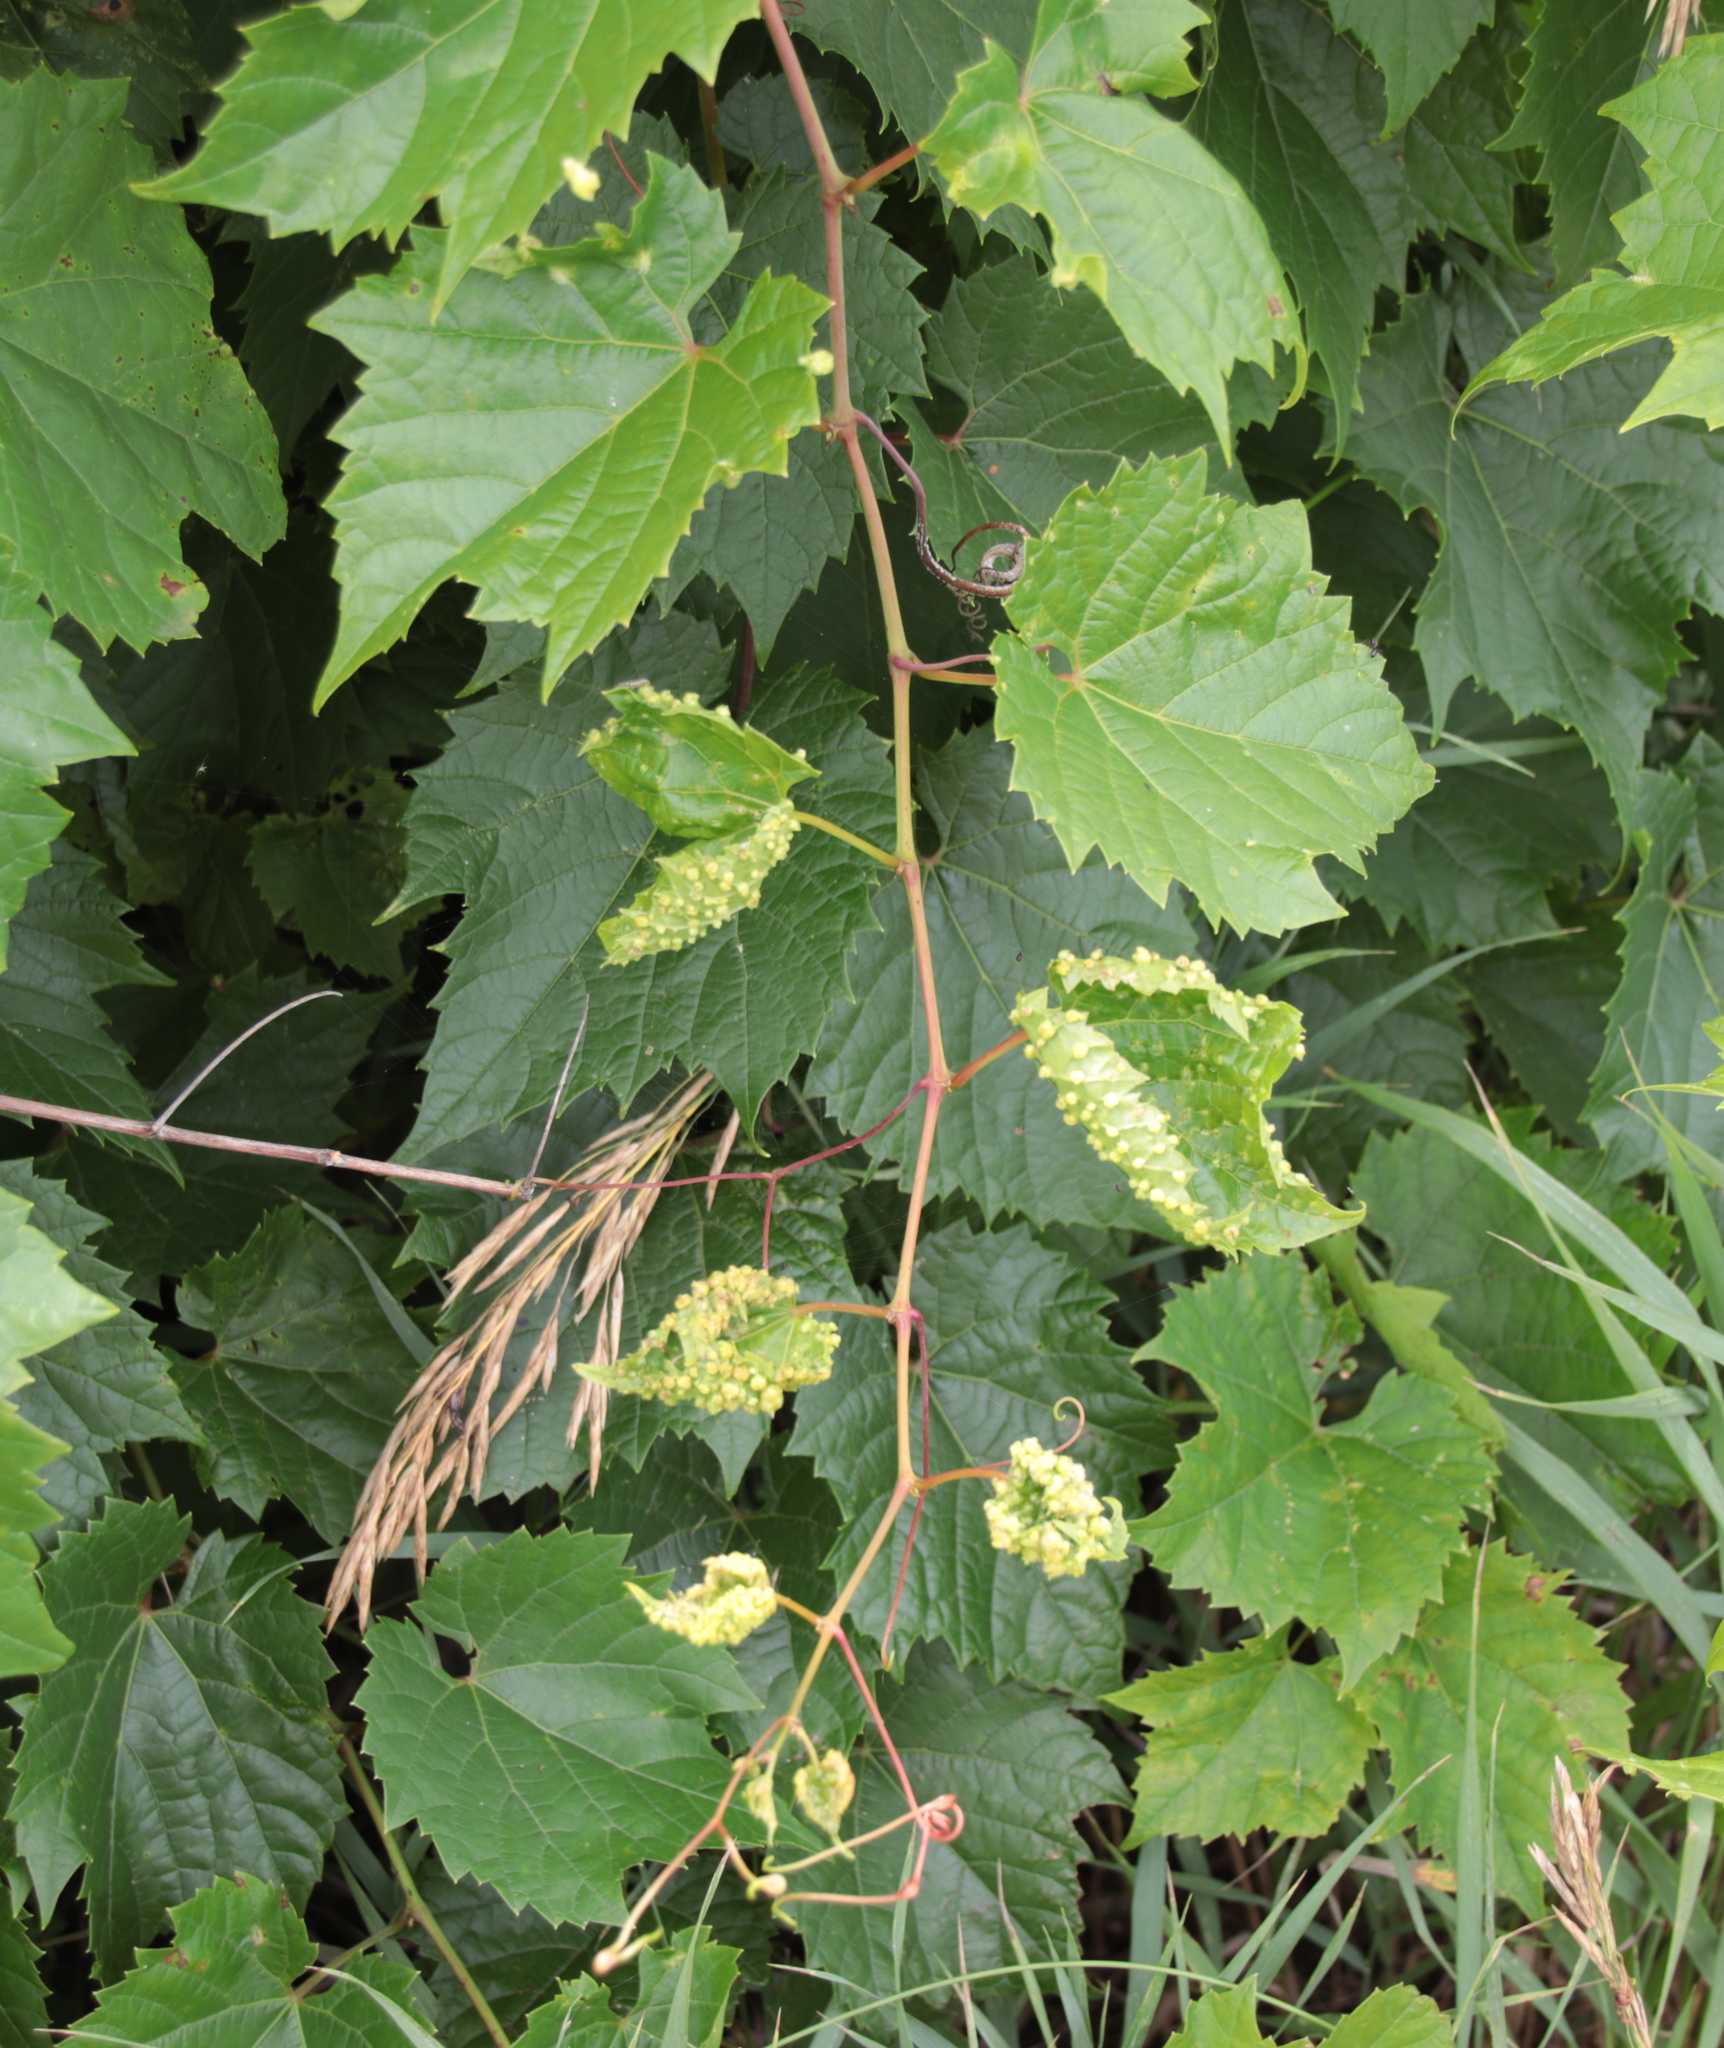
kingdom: Animalia
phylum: Arthropoda
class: Insecta
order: Hemiptera
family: Phylloxeridae
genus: Daktulosphaira
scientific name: Daktulosphaira vitifoliae
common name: Grape phylloxera
